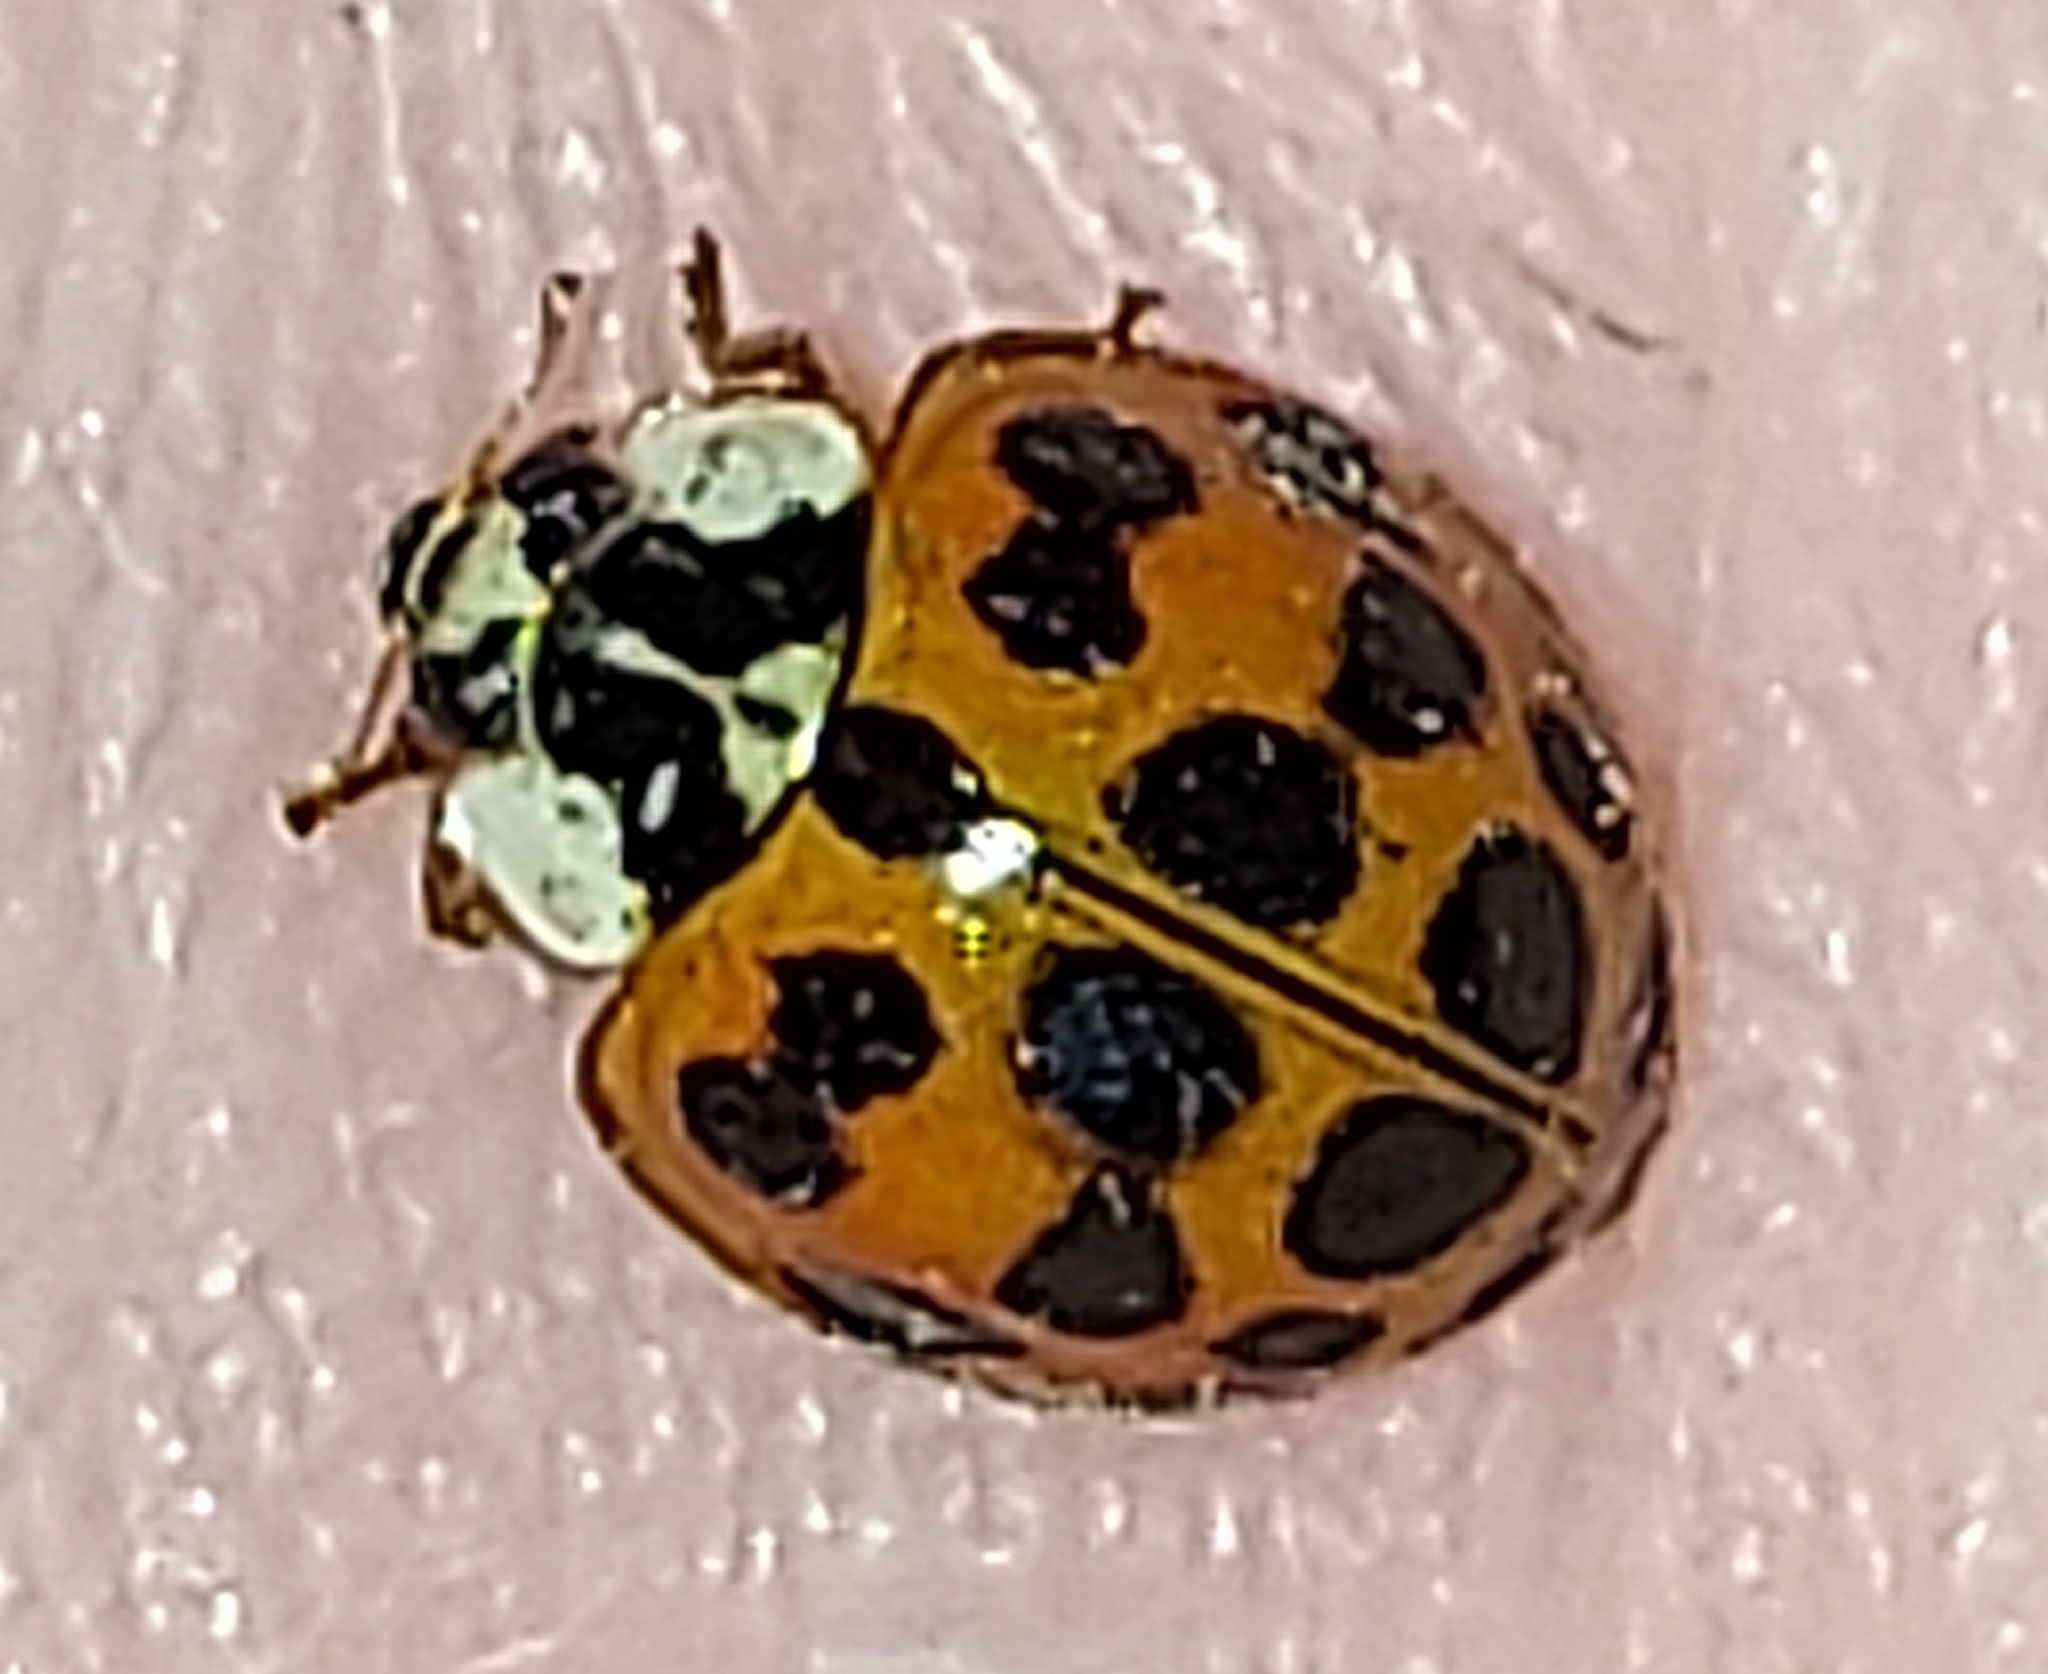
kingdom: Animalia
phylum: Arthropoda
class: Insecta
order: Coleoptera
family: Coccinellidae
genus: Harmonia
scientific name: Harmonia axyridis
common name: Harlequin ladybird
